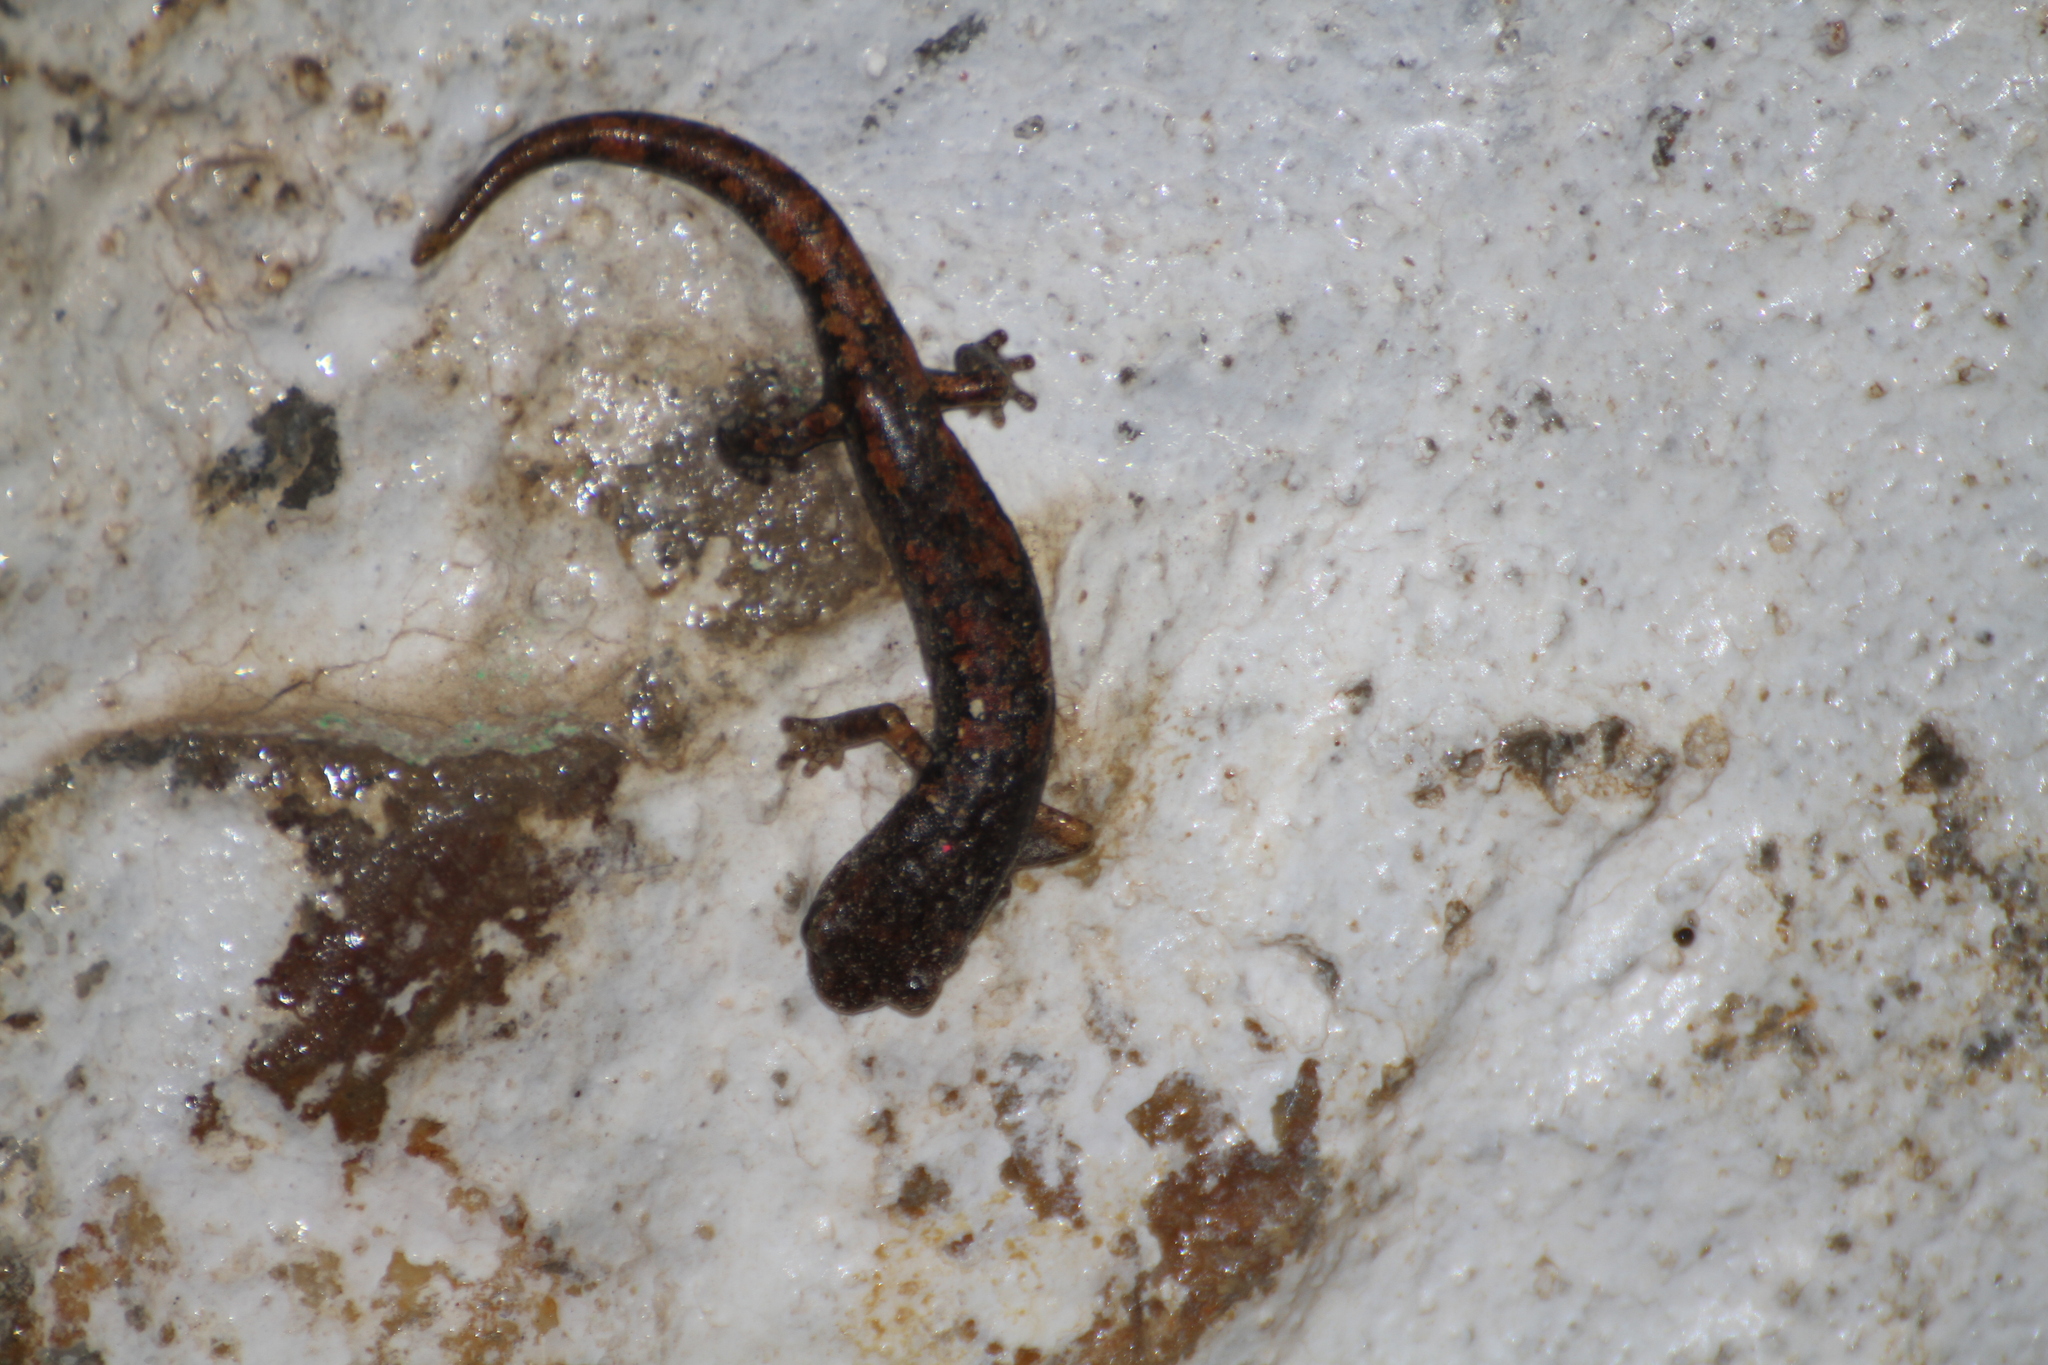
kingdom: Animalia
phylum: Chordata
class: Amphibia
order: Caudata
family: Plethodontidae
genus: Speleomantes
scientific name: Speleomantes strinatii
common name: French cave salamander
